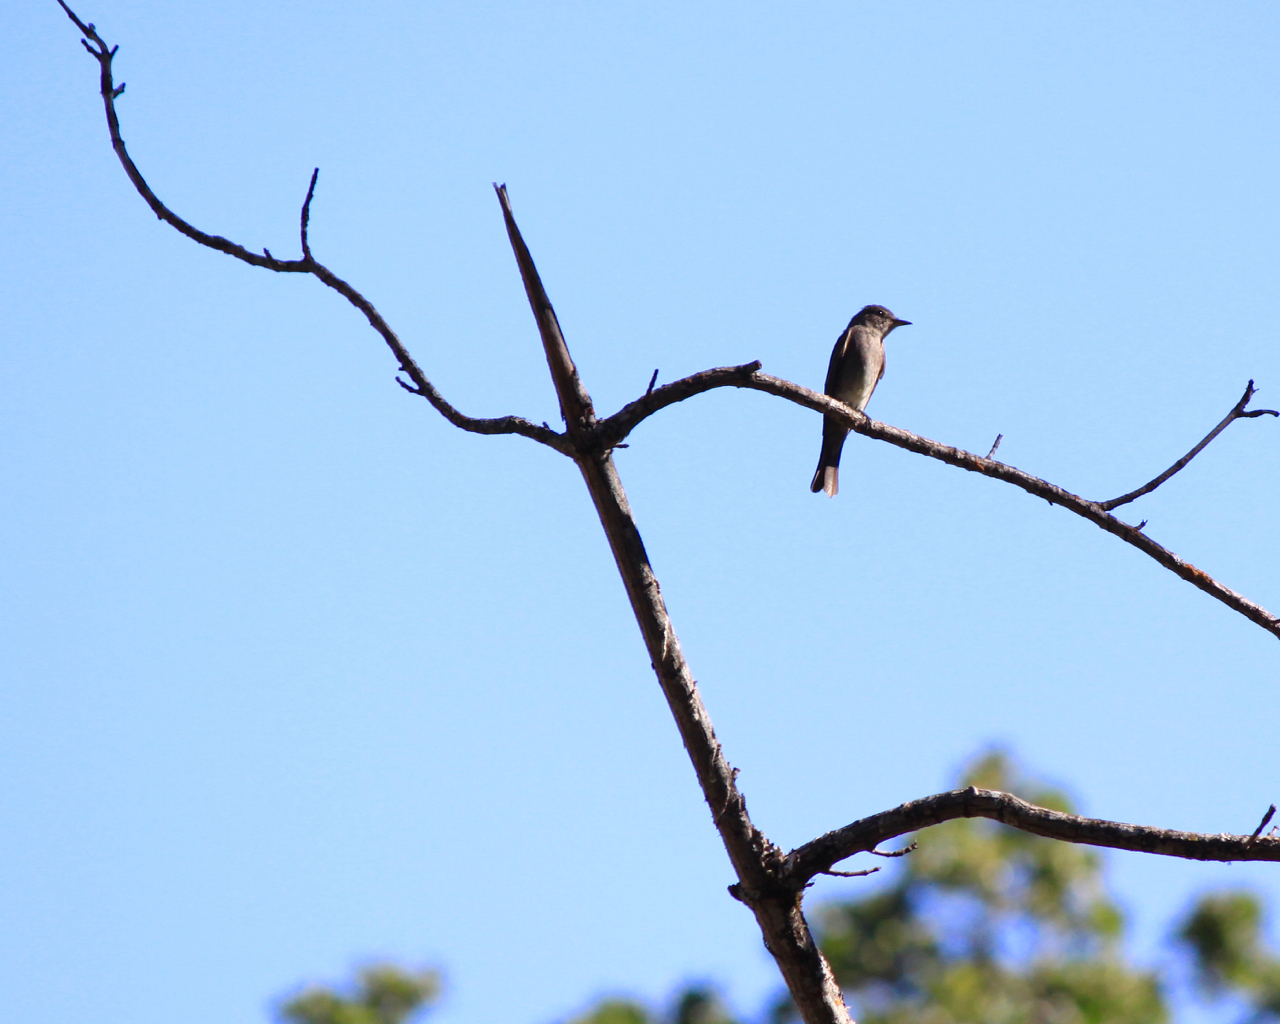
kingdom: Animalia
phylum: Chordata
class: Aves
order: Passeriformes
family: Tyrannidae
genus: Contopus
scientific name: Contopus sordidulus
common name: Western wood-pewee
